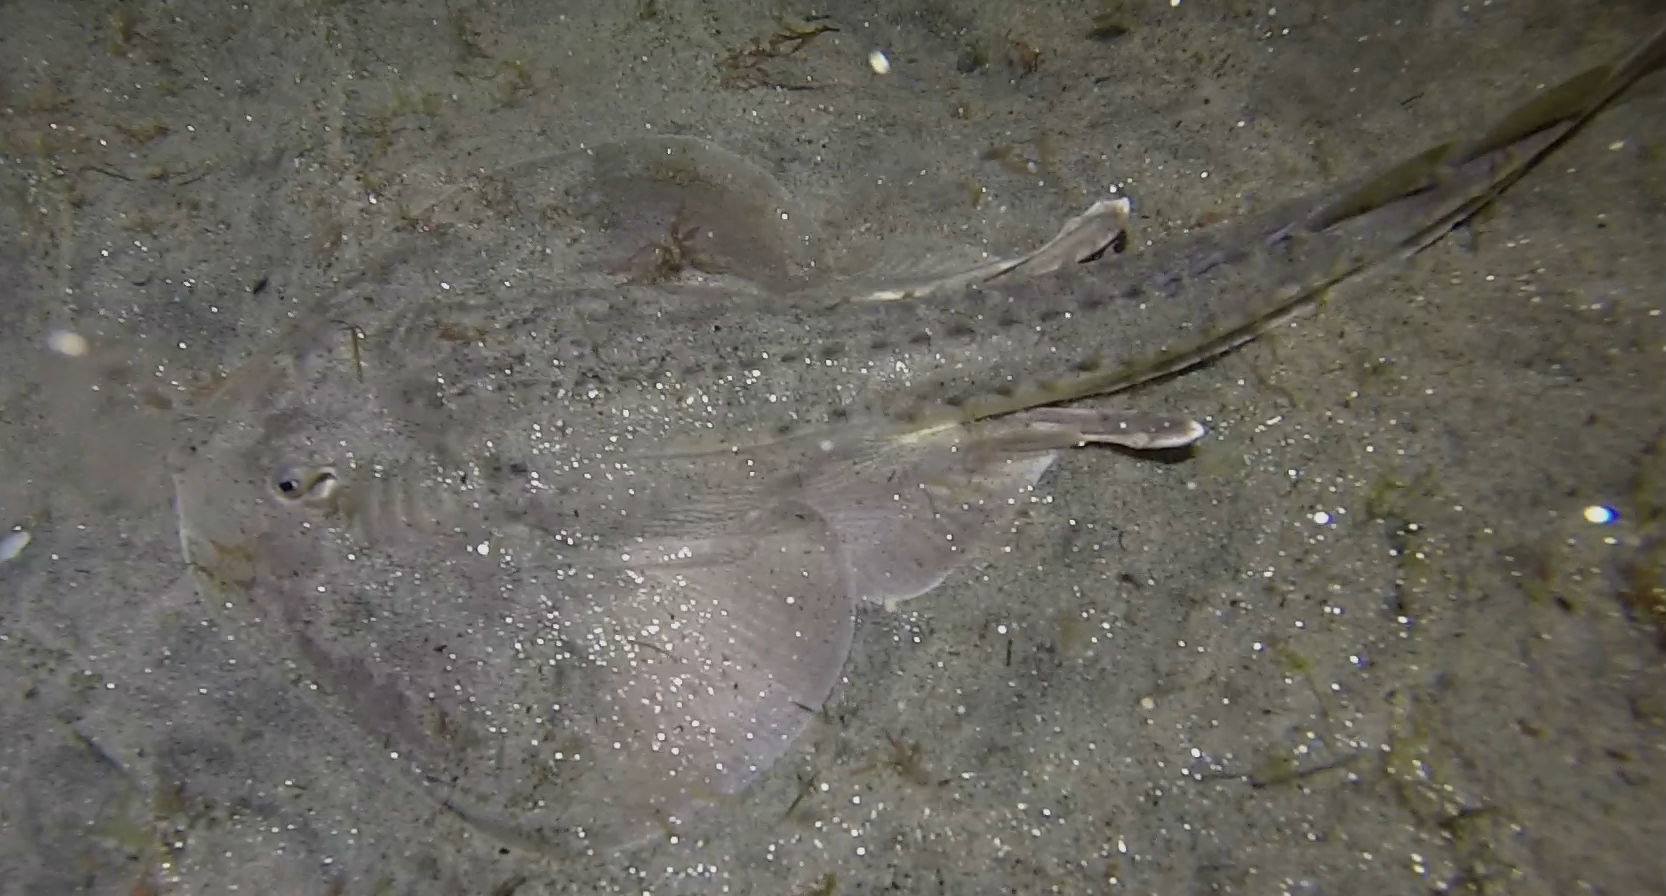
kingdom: Animalia
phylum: Chordata
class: Elasmobranchii
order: Rhinopristiformes
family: Rhinobatidae
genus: Platyrhinoidis
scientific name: Platyrhinoidis triseriata
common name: Thornback
